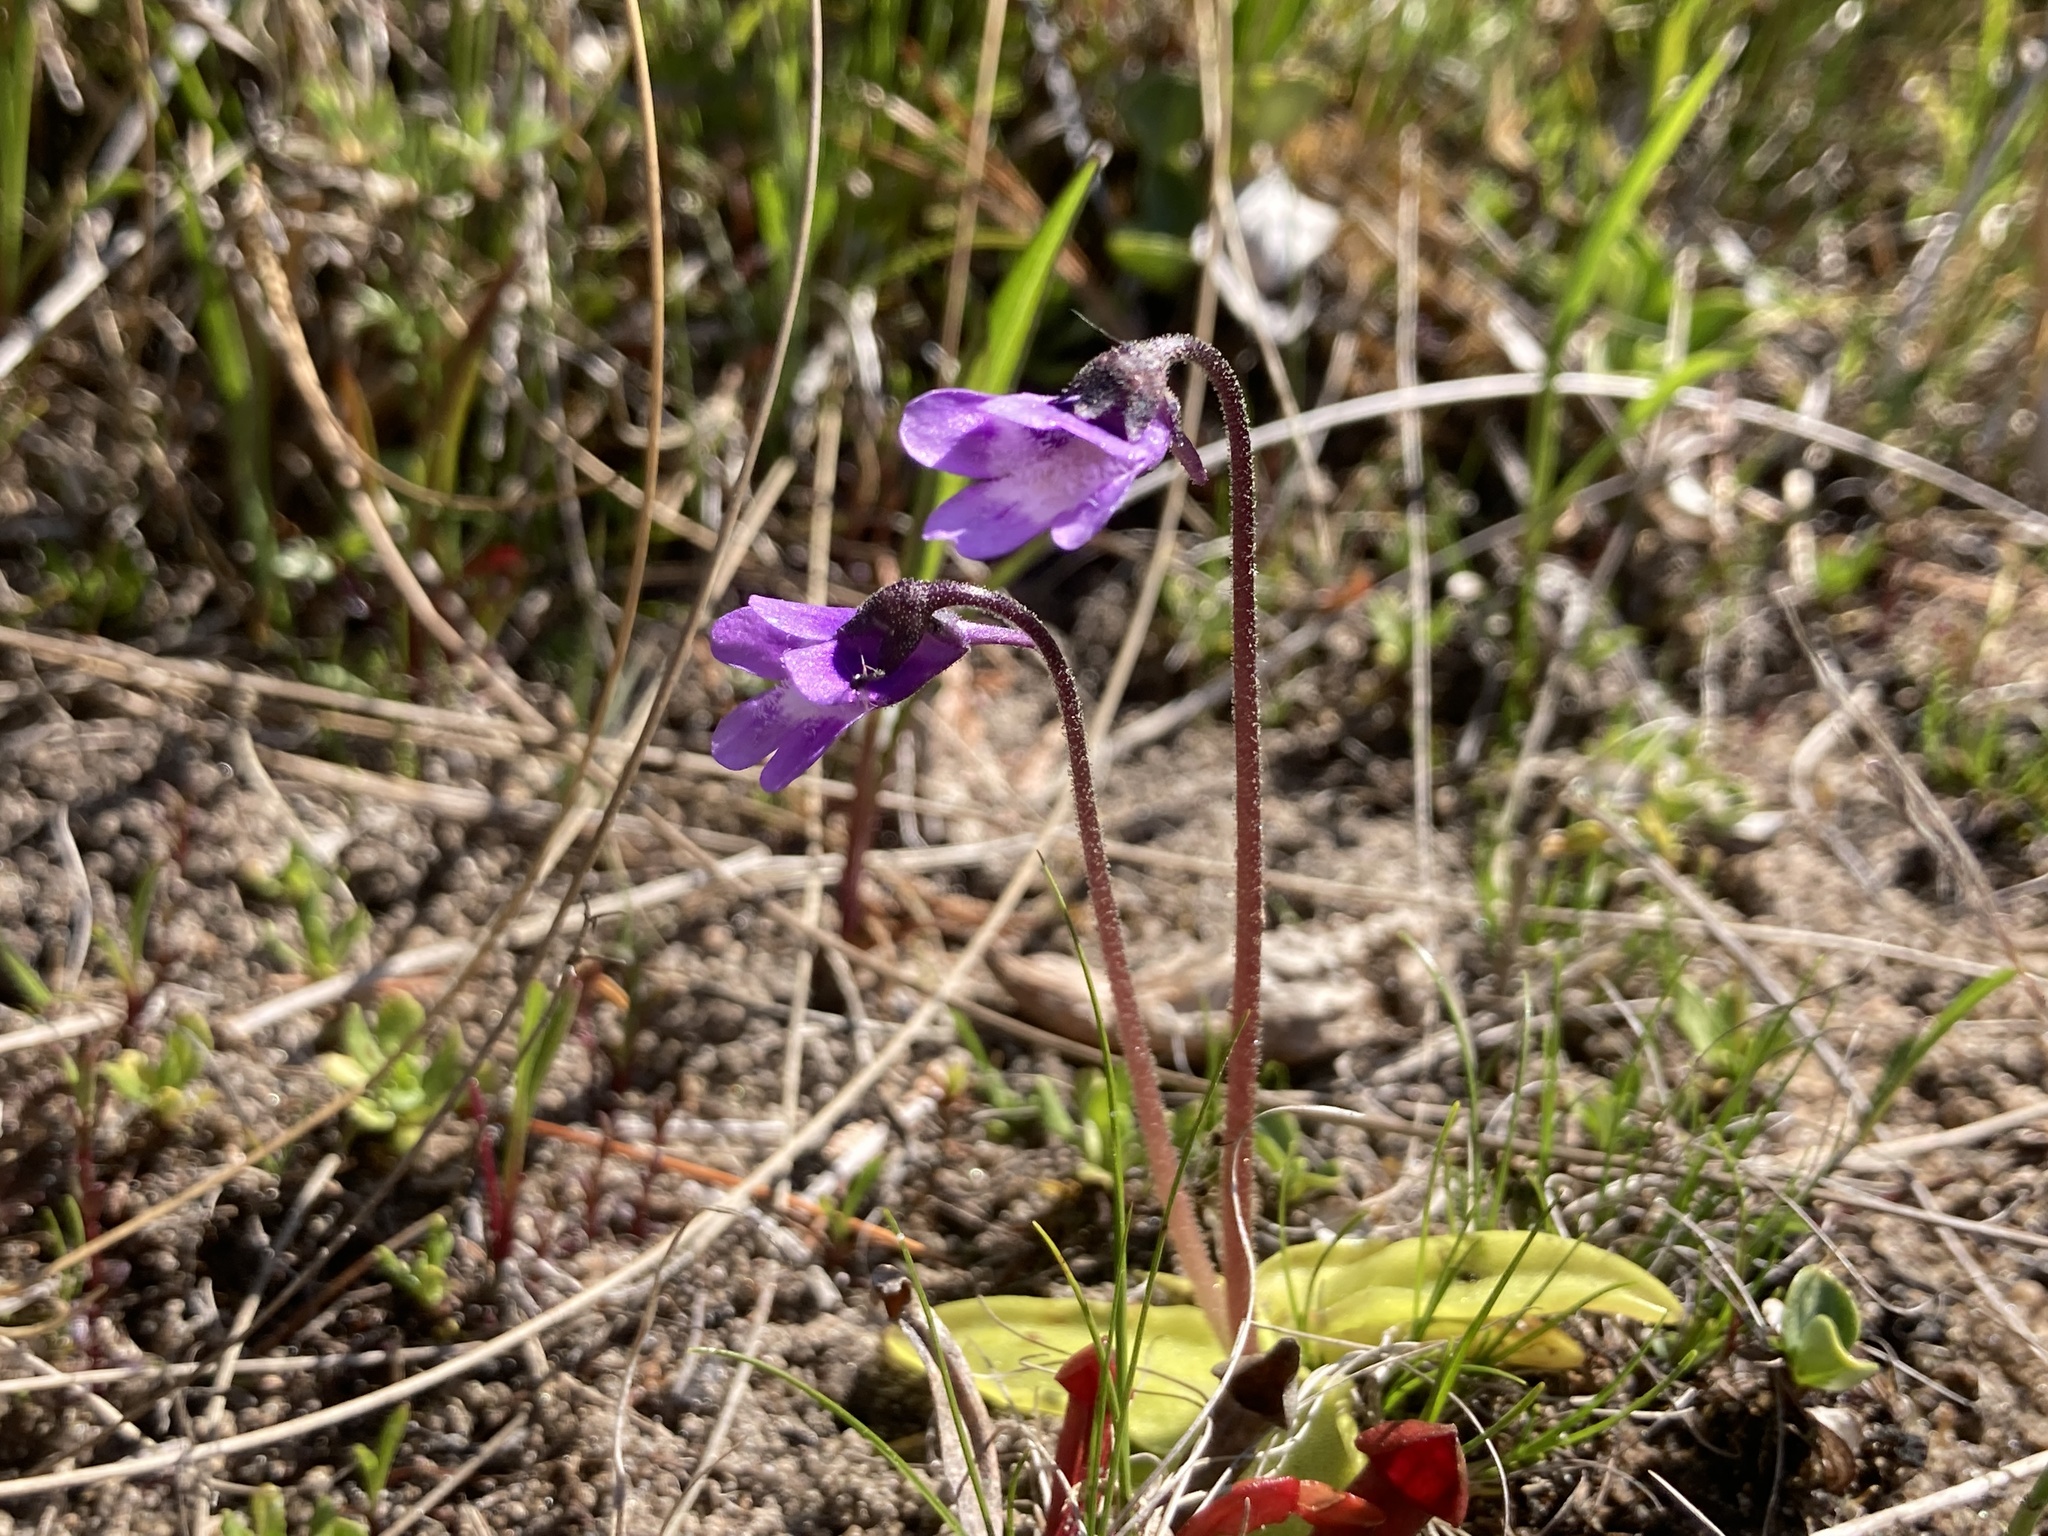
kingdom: Plantae
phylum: Tracheophyta
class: Magnoliopsida
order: Lamiales
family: Lentibulariaceae
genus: Pinguicula
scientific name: Pinguicula vulgaris
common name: Common butterwort
